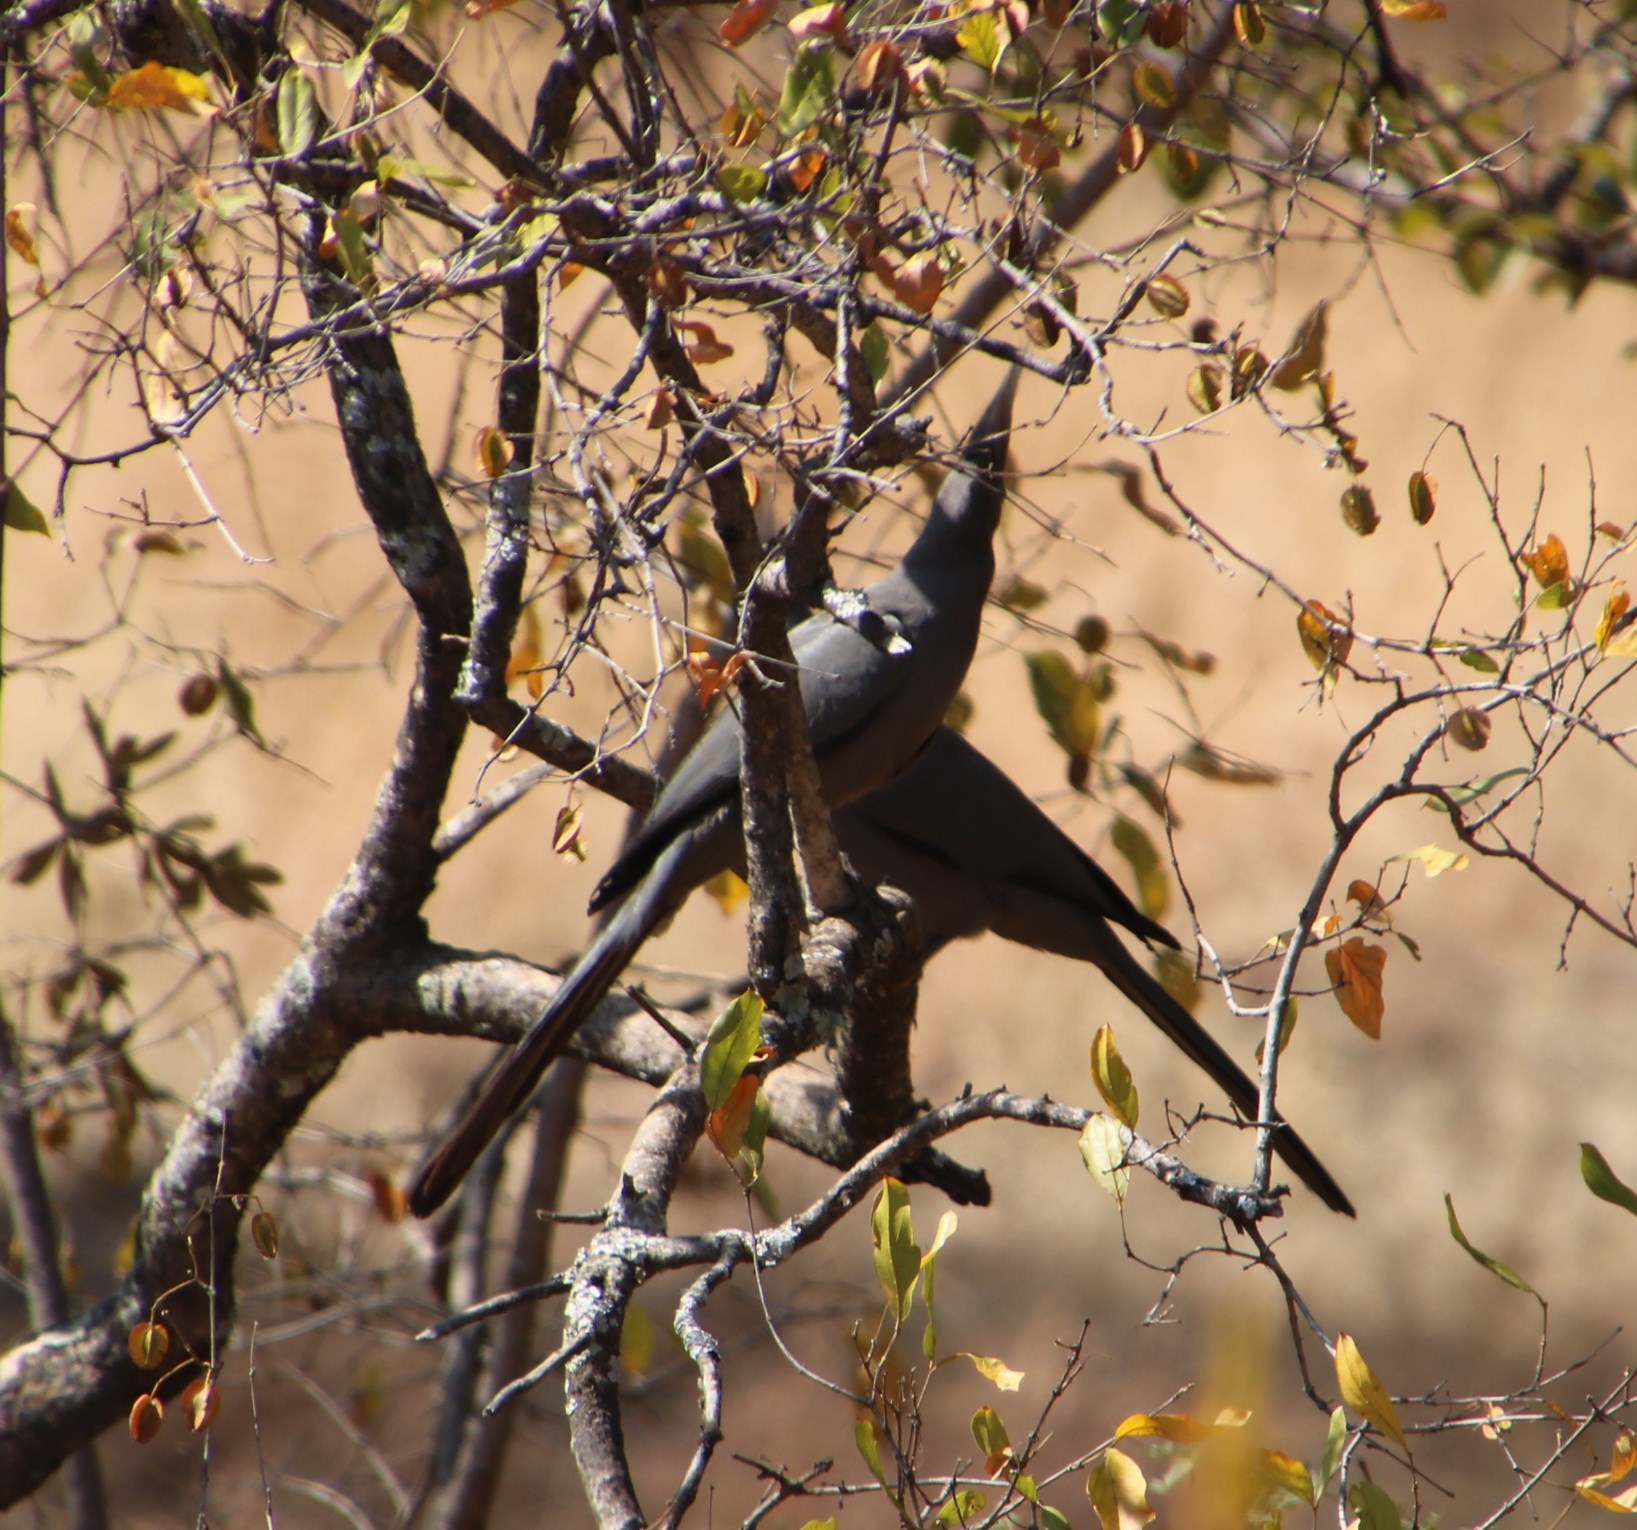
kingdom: Animalia
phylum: Chordata
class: Aves
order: Musophagiformes
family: Musophagidae
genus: Corythaixoides
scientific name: Corythaixoides concolor
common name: Grey go-away-bird
